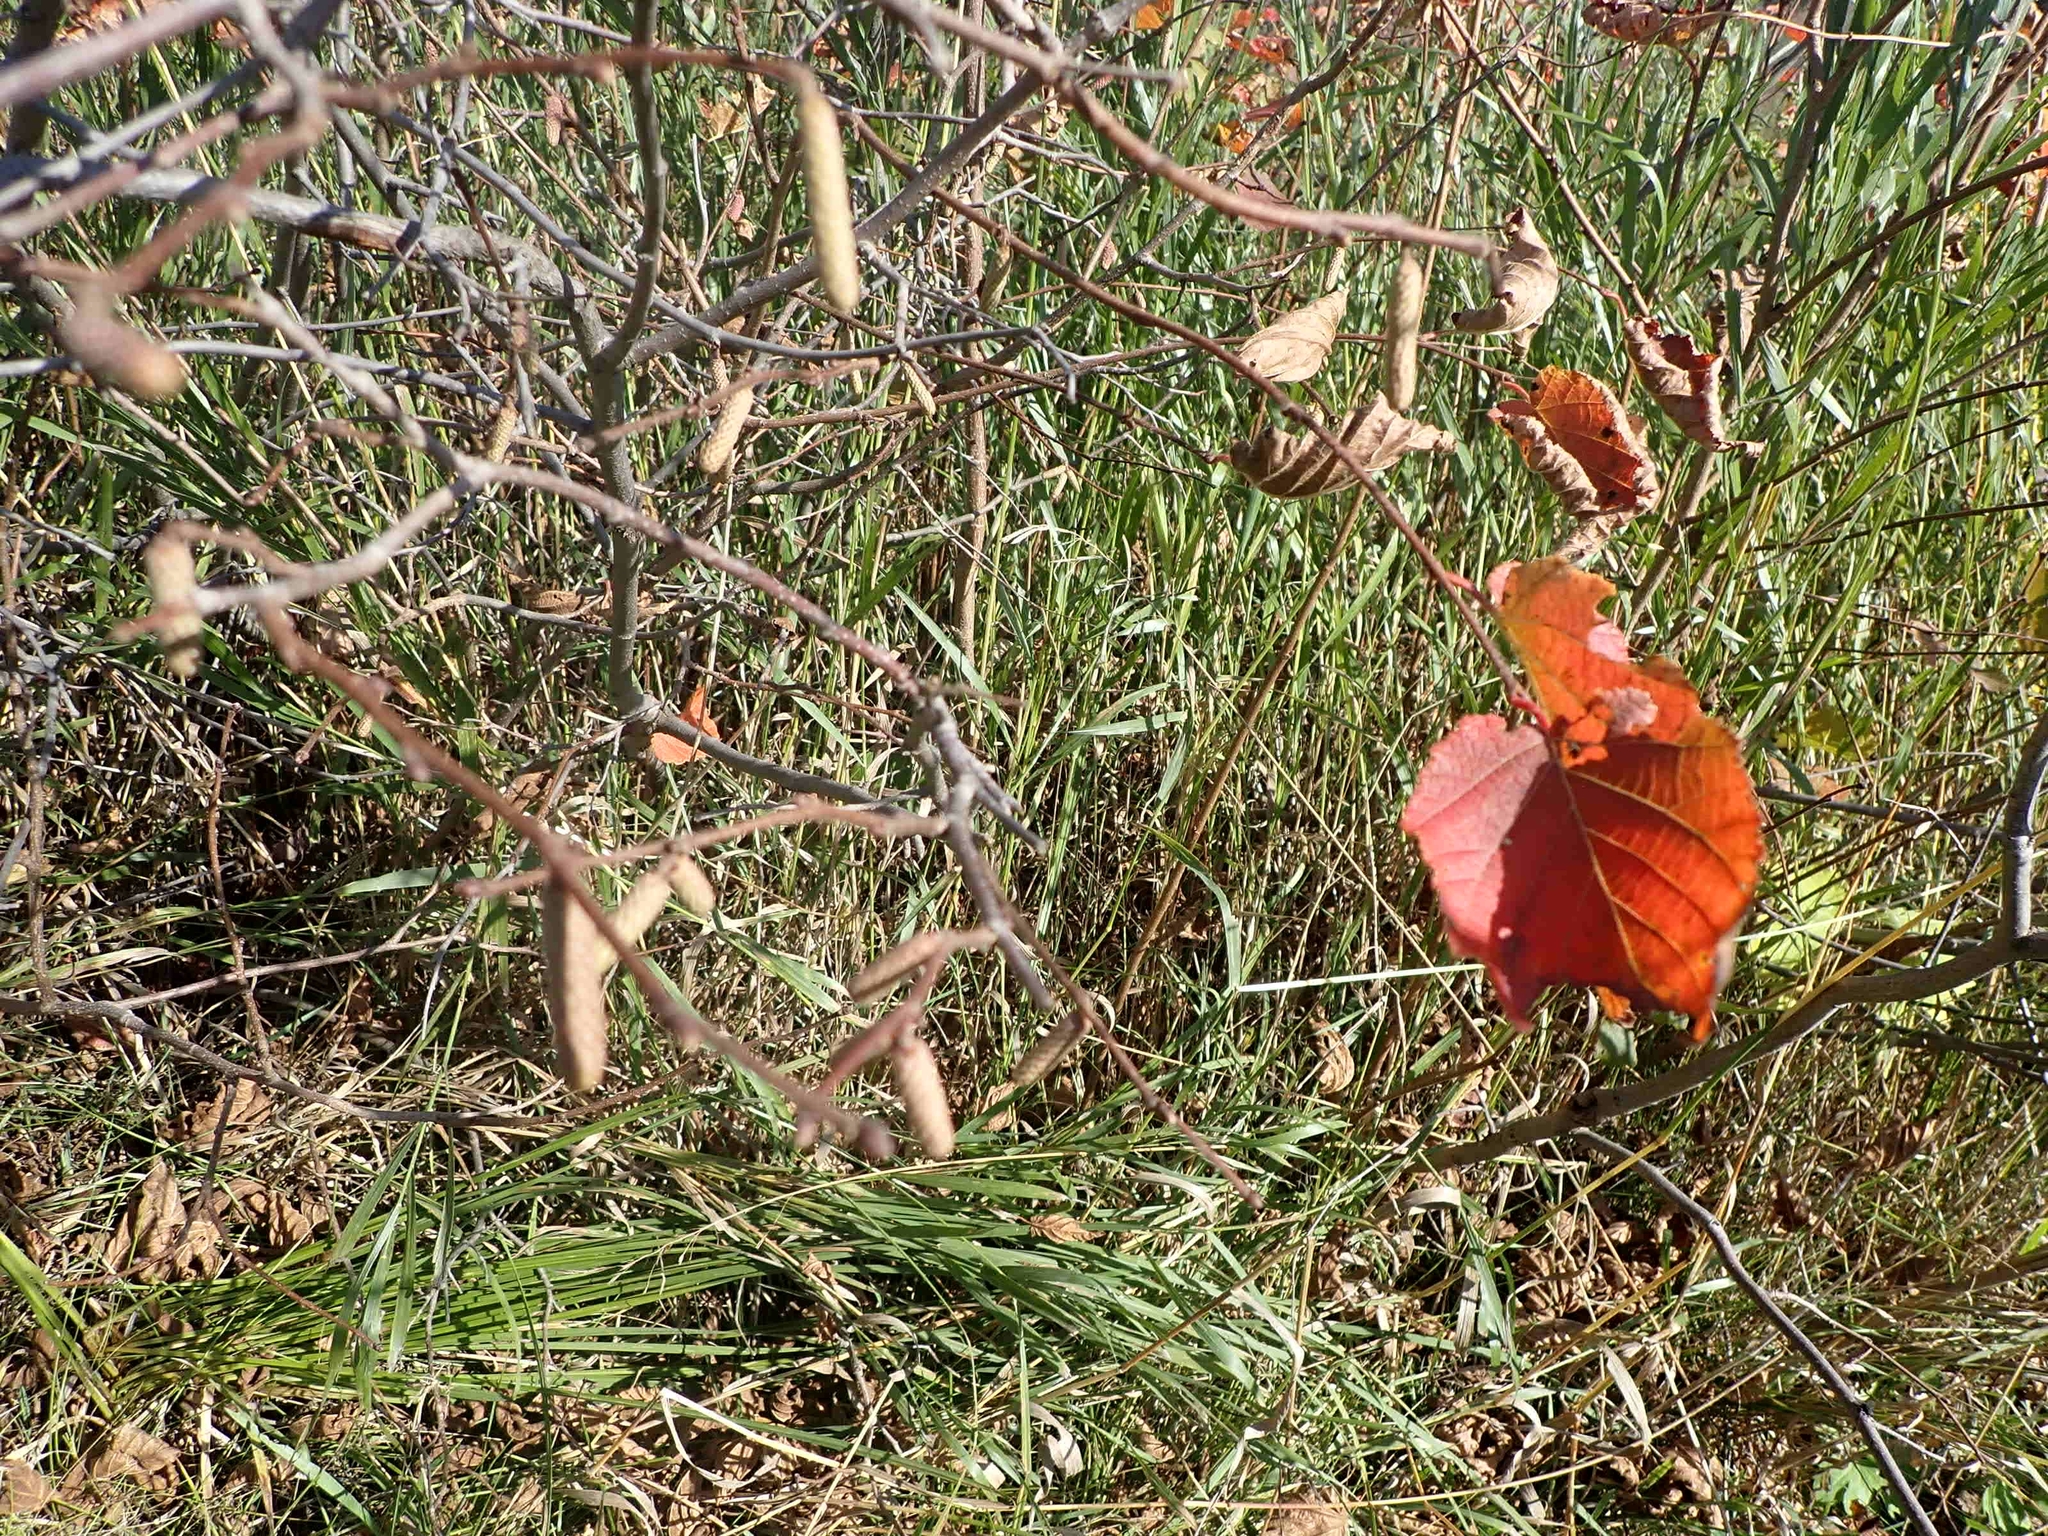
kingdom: Plantae
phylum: Tracheophyta
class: Magnoliopsida
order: Fagales
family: Betulaceae
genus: Corylus
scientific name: Corylus americana
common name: American hazel
